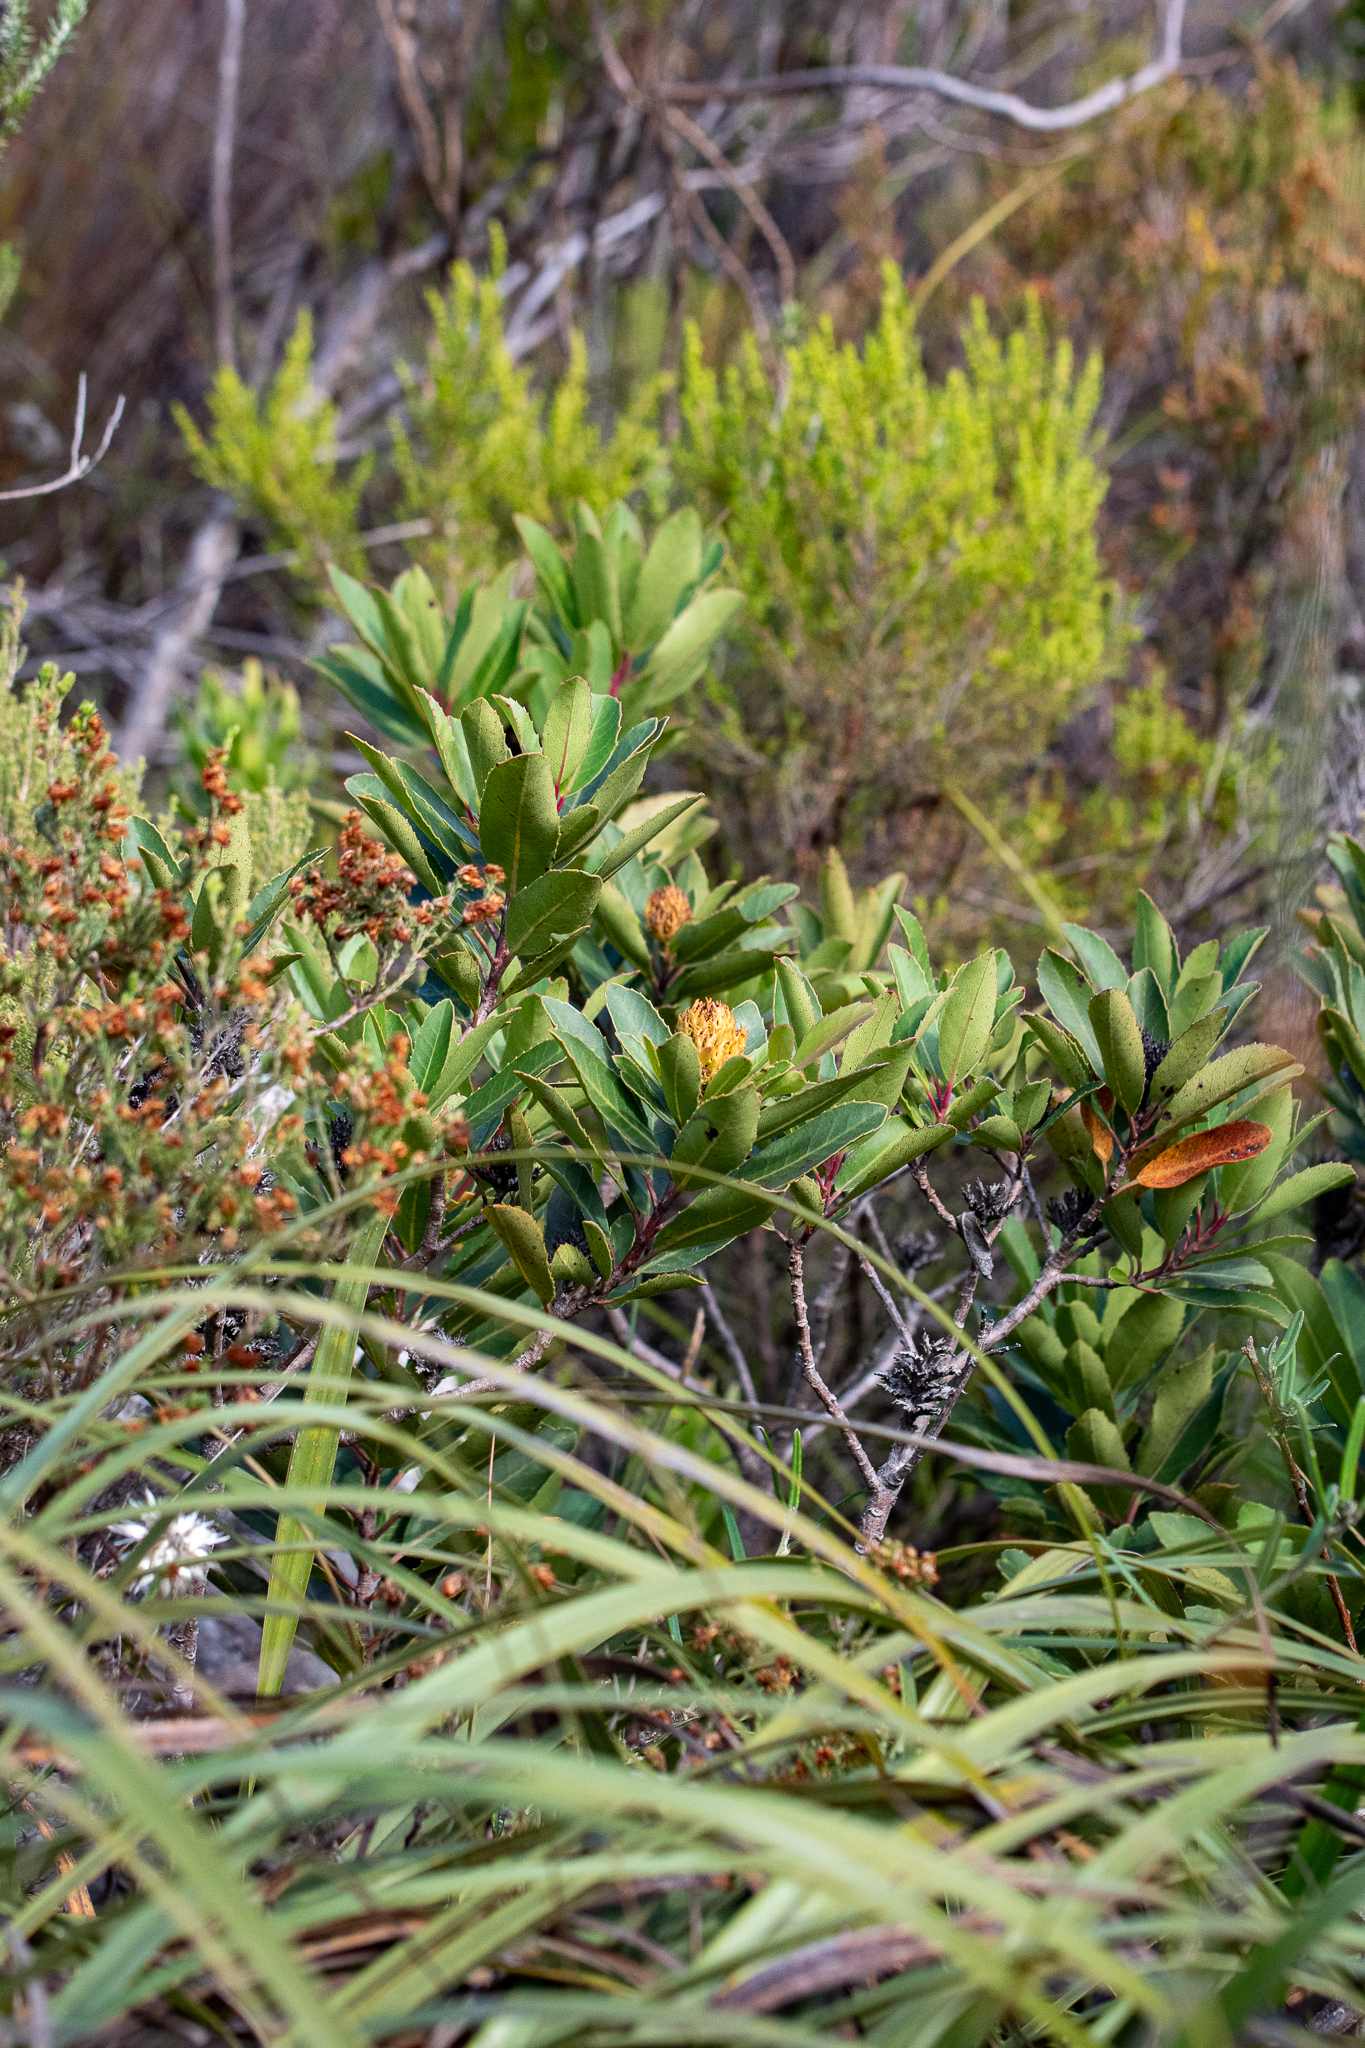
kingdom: Plantae
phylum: Tracheophyta
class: Magnoliopsida
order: Sapindales
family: Anacardiaceae
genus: Laurophyllus
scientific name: Laurophyllus capensis
